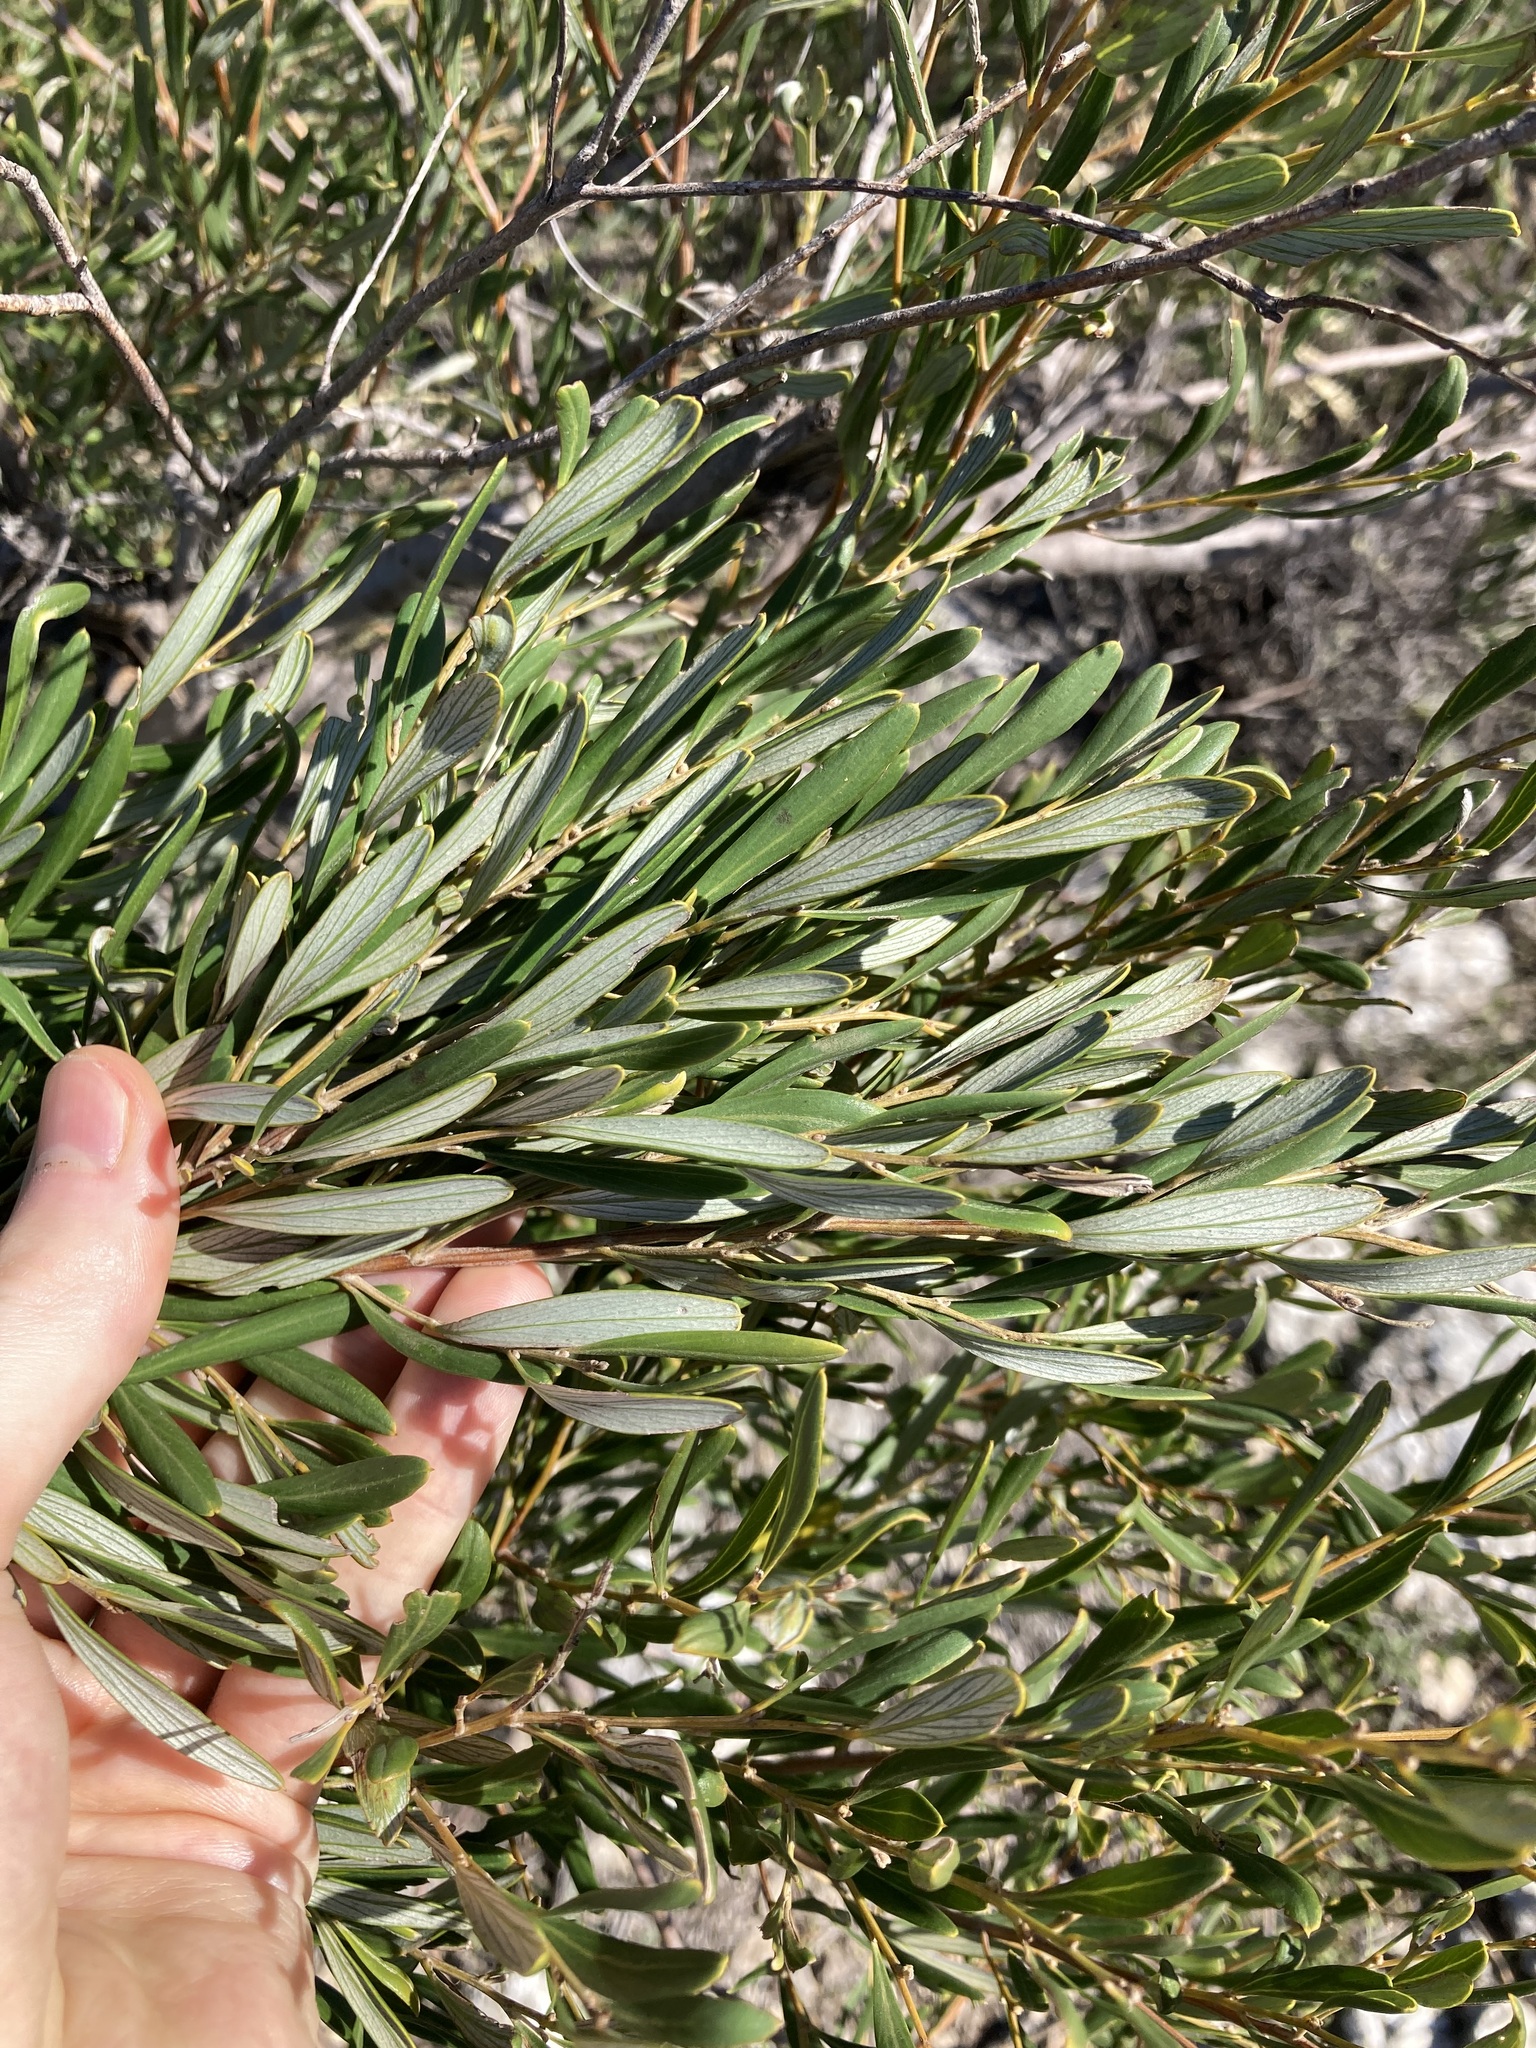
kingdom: Plantae
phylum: Tracheophyta
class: Magnoliopsida
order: Proteales
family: Proteaceae
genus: Grevillea
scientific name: Grevillea commutata
